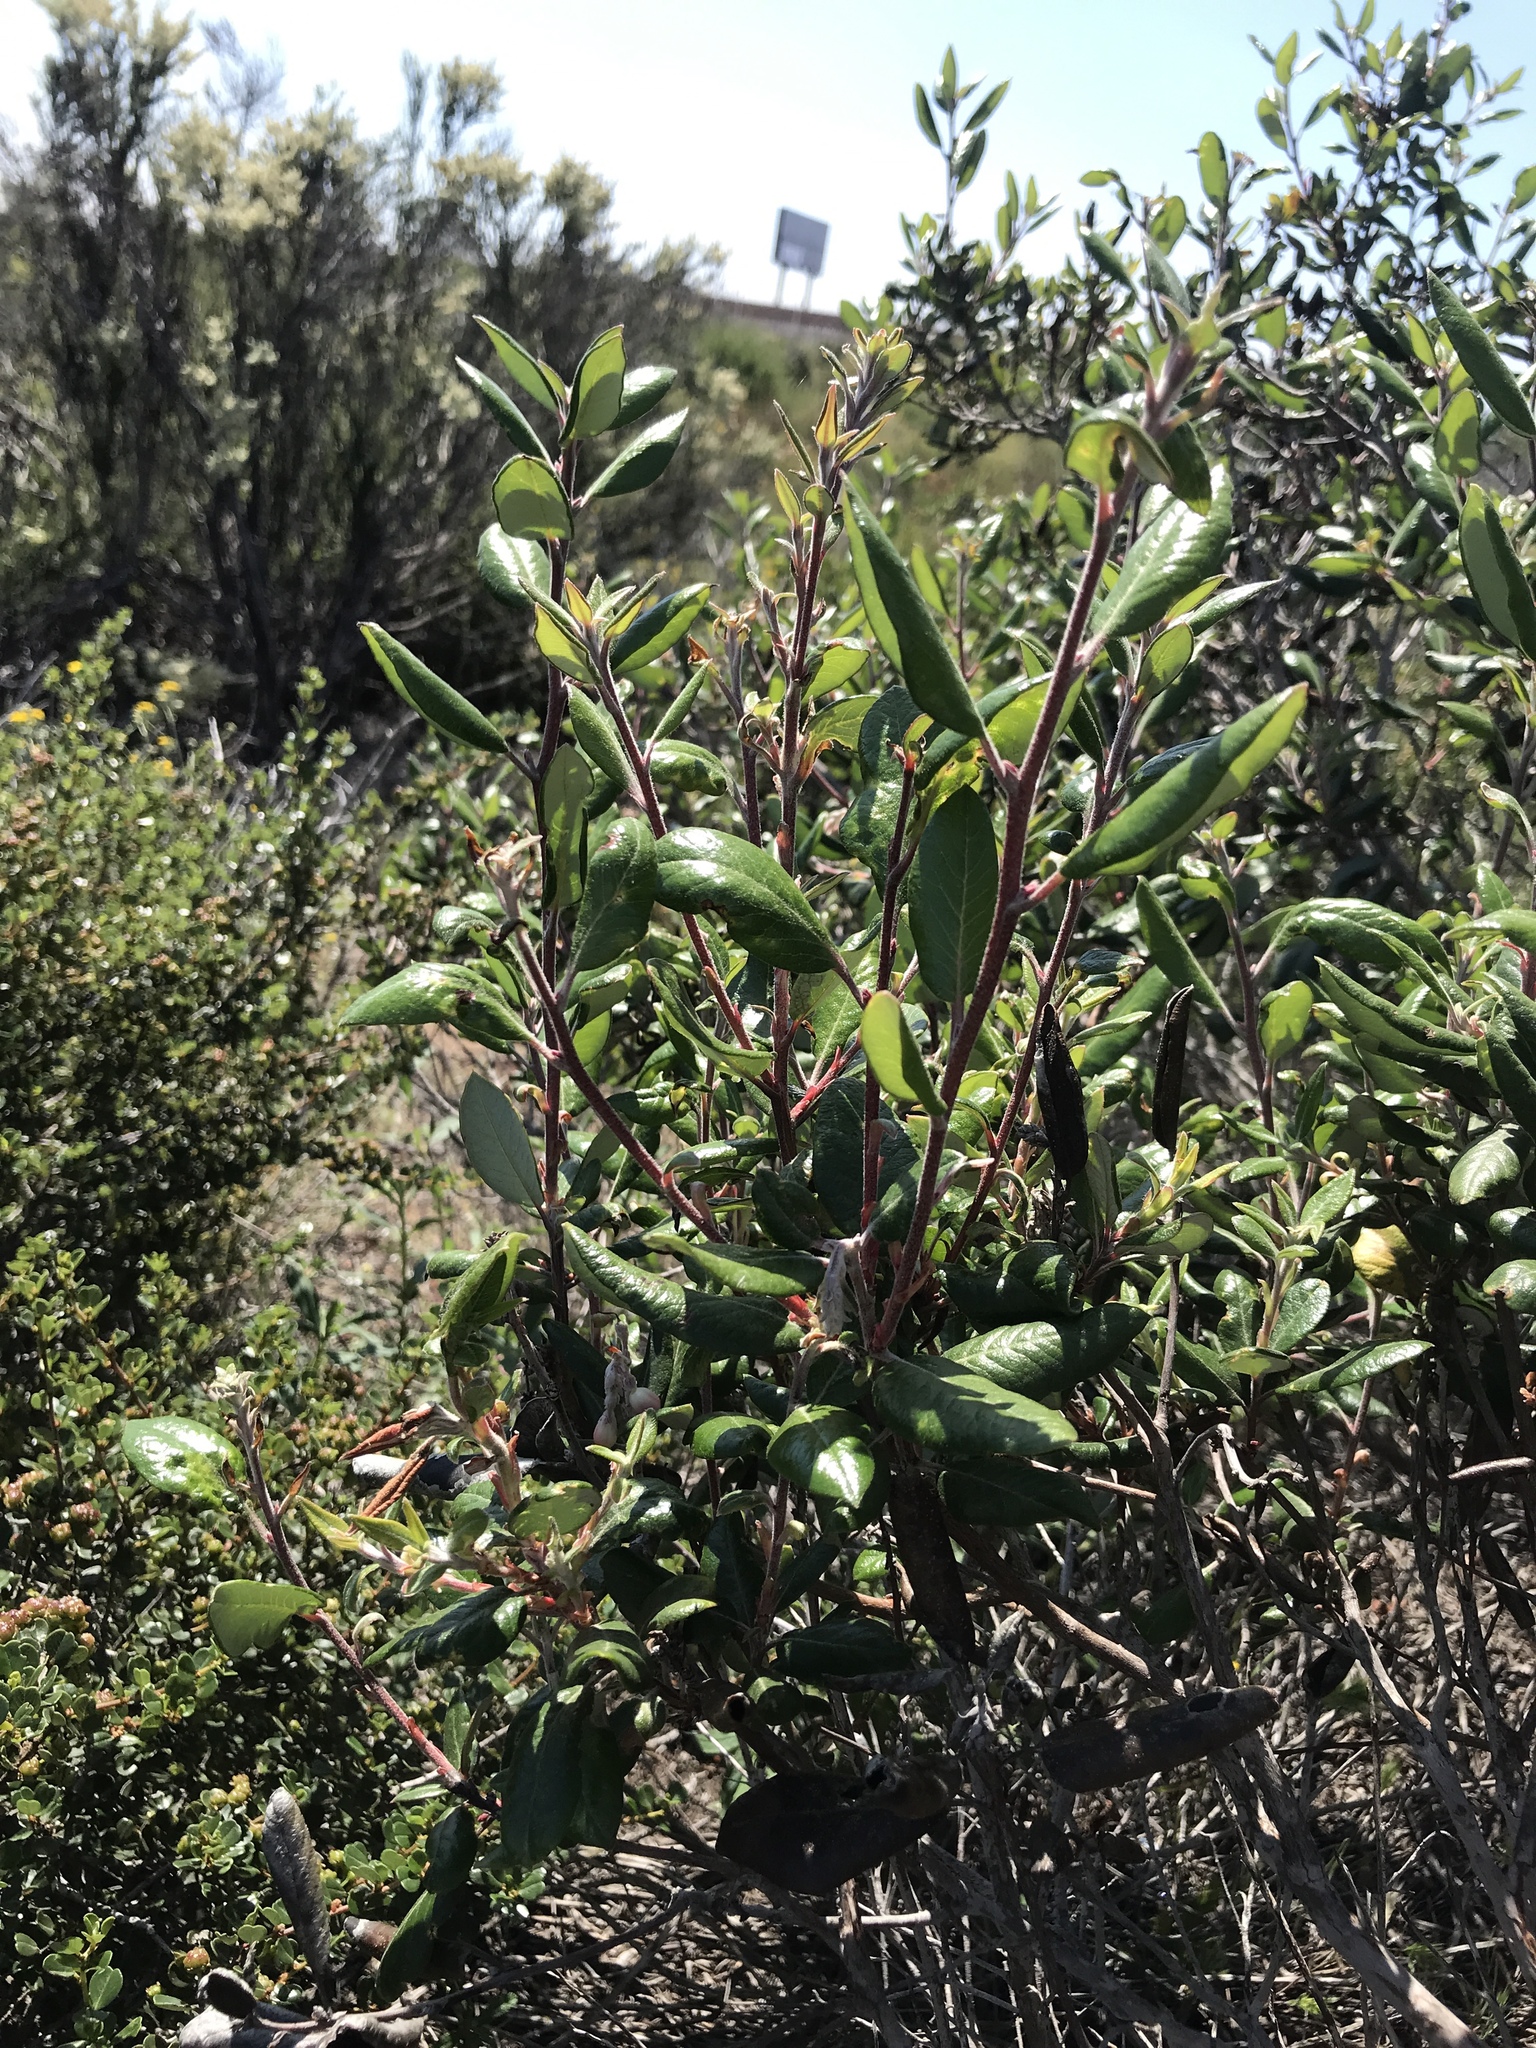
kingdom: Plantae
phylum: Tracheophyta
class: Magnoliopsida
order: Ericales
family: Ericaceae
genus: Arctostaphylos
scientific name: Arctostaphylos bicolor
